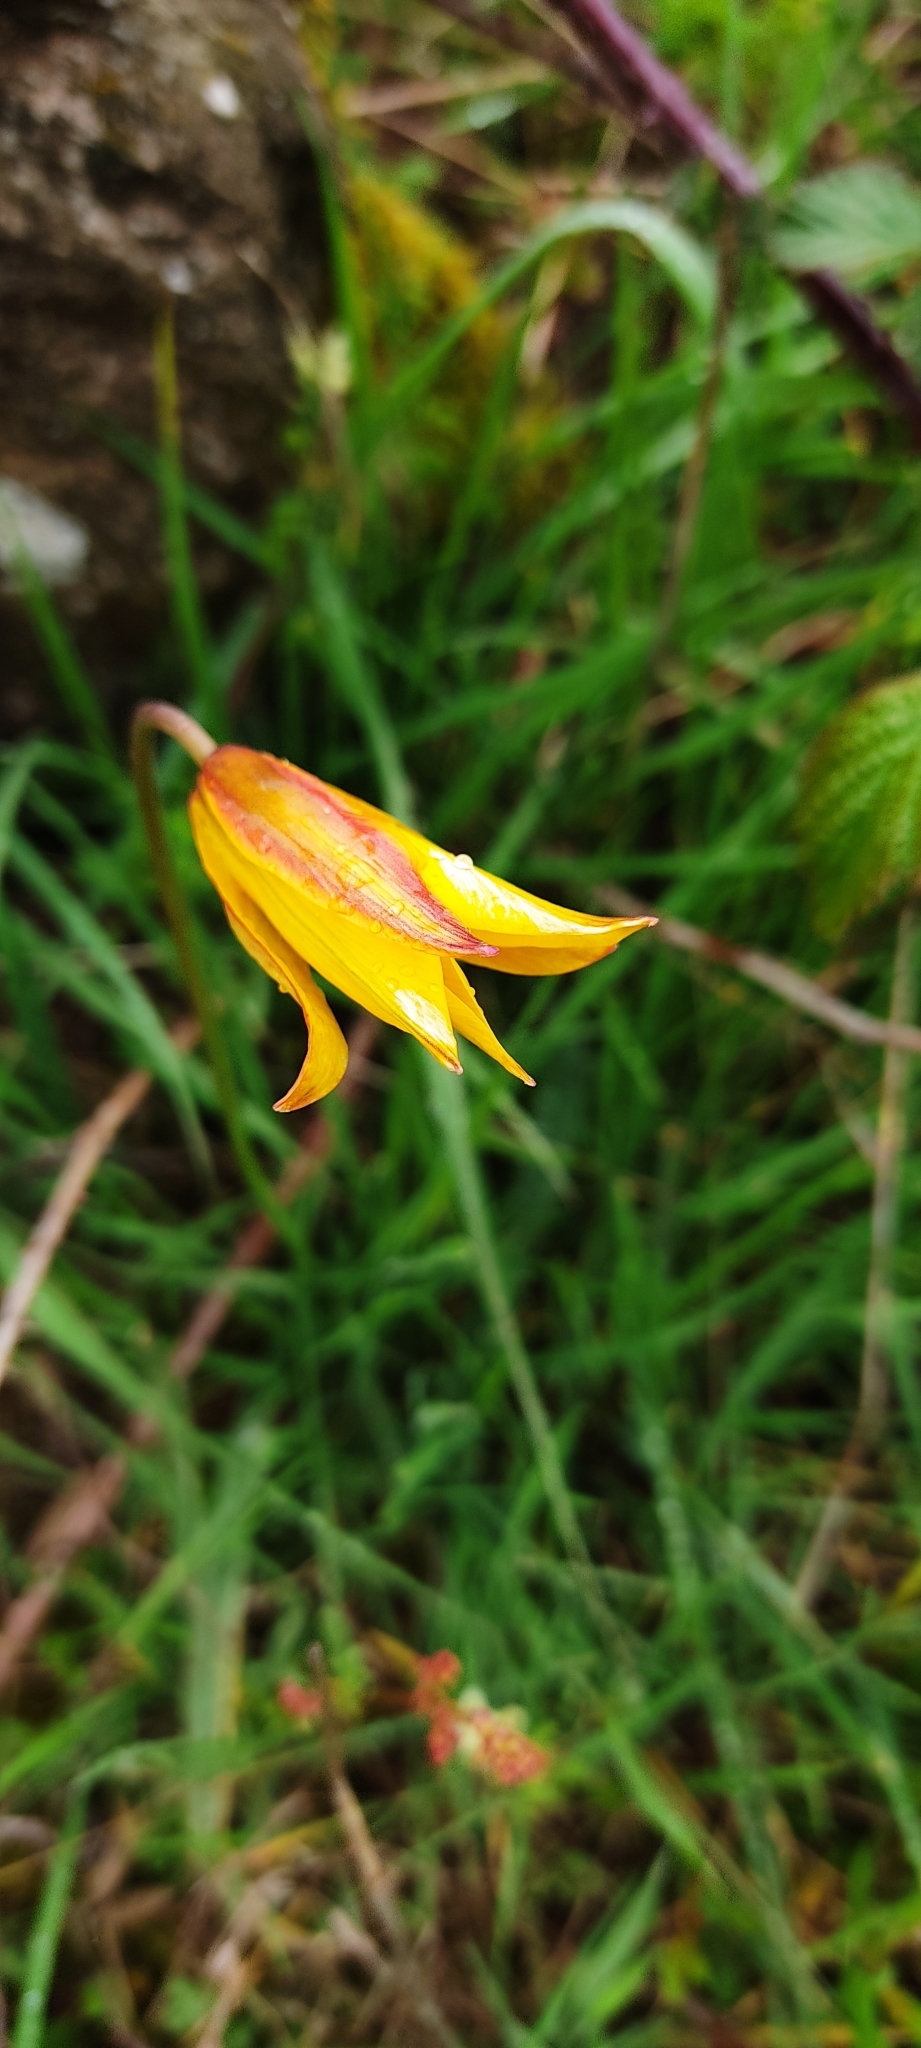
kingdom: Plantae
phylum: Tracheophyta
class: Liliopsida
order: Liliales
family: Liliaceae
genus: Tulipa
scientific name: Tulipa sylvestris
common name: Wild tulip
